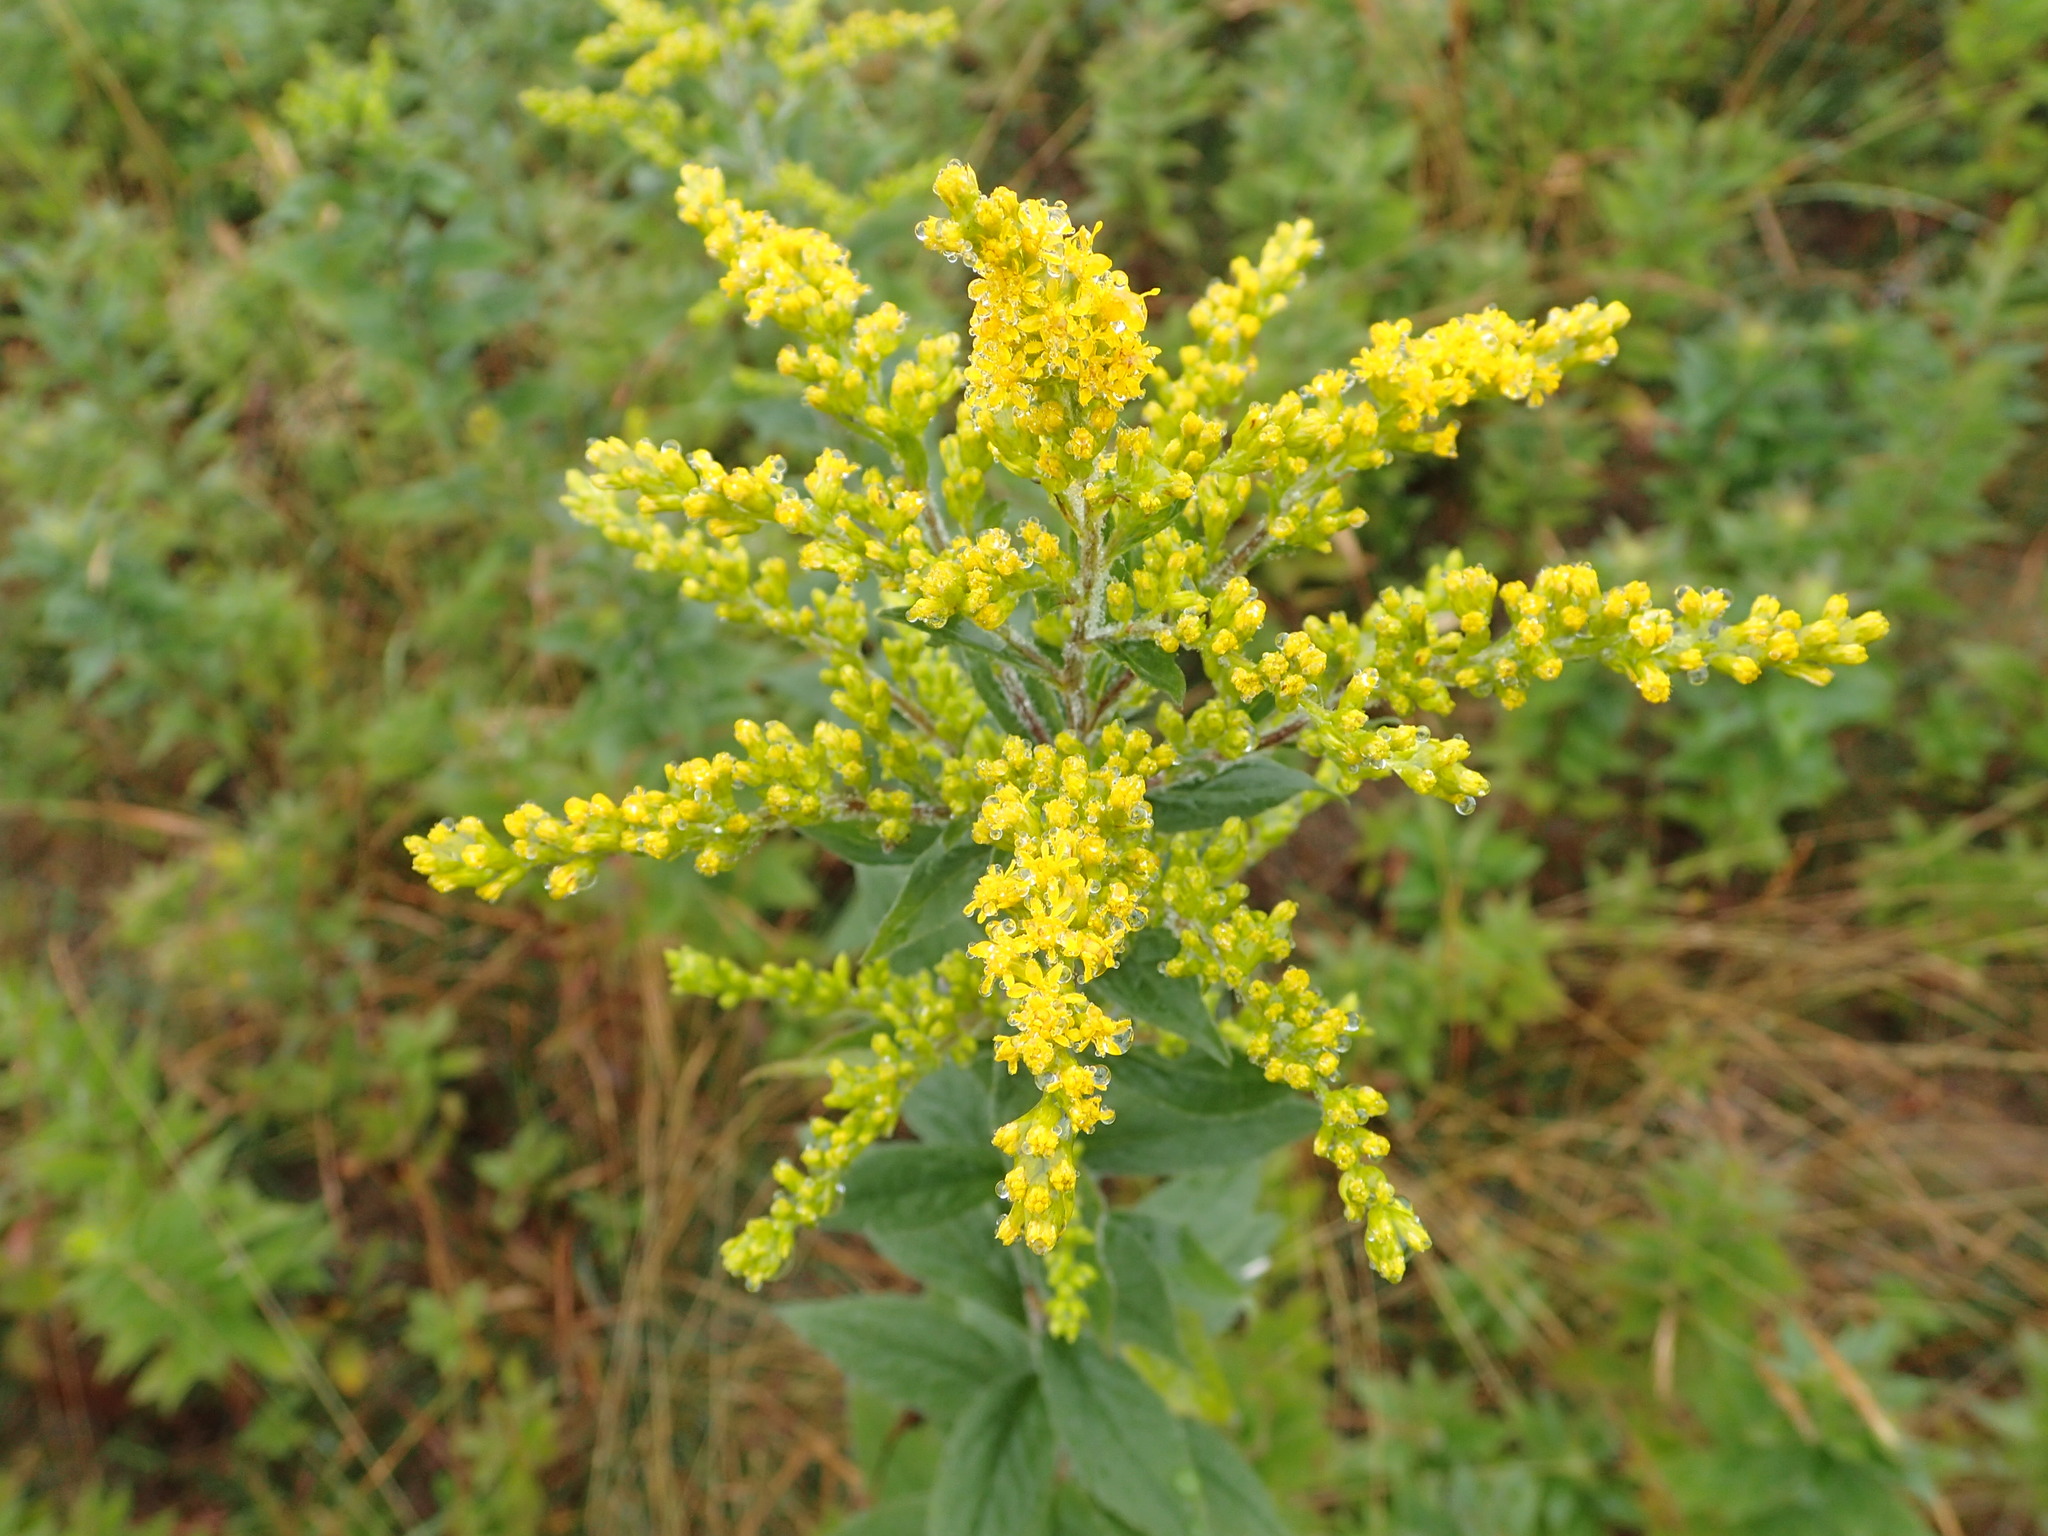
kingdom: Plantae
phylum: Tracheophyta
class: Magnoliopsida
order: Asterales
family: Asteraceae
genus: Solidago
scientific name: Solidago rugosa
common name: Rough-stemmed goldenrod
